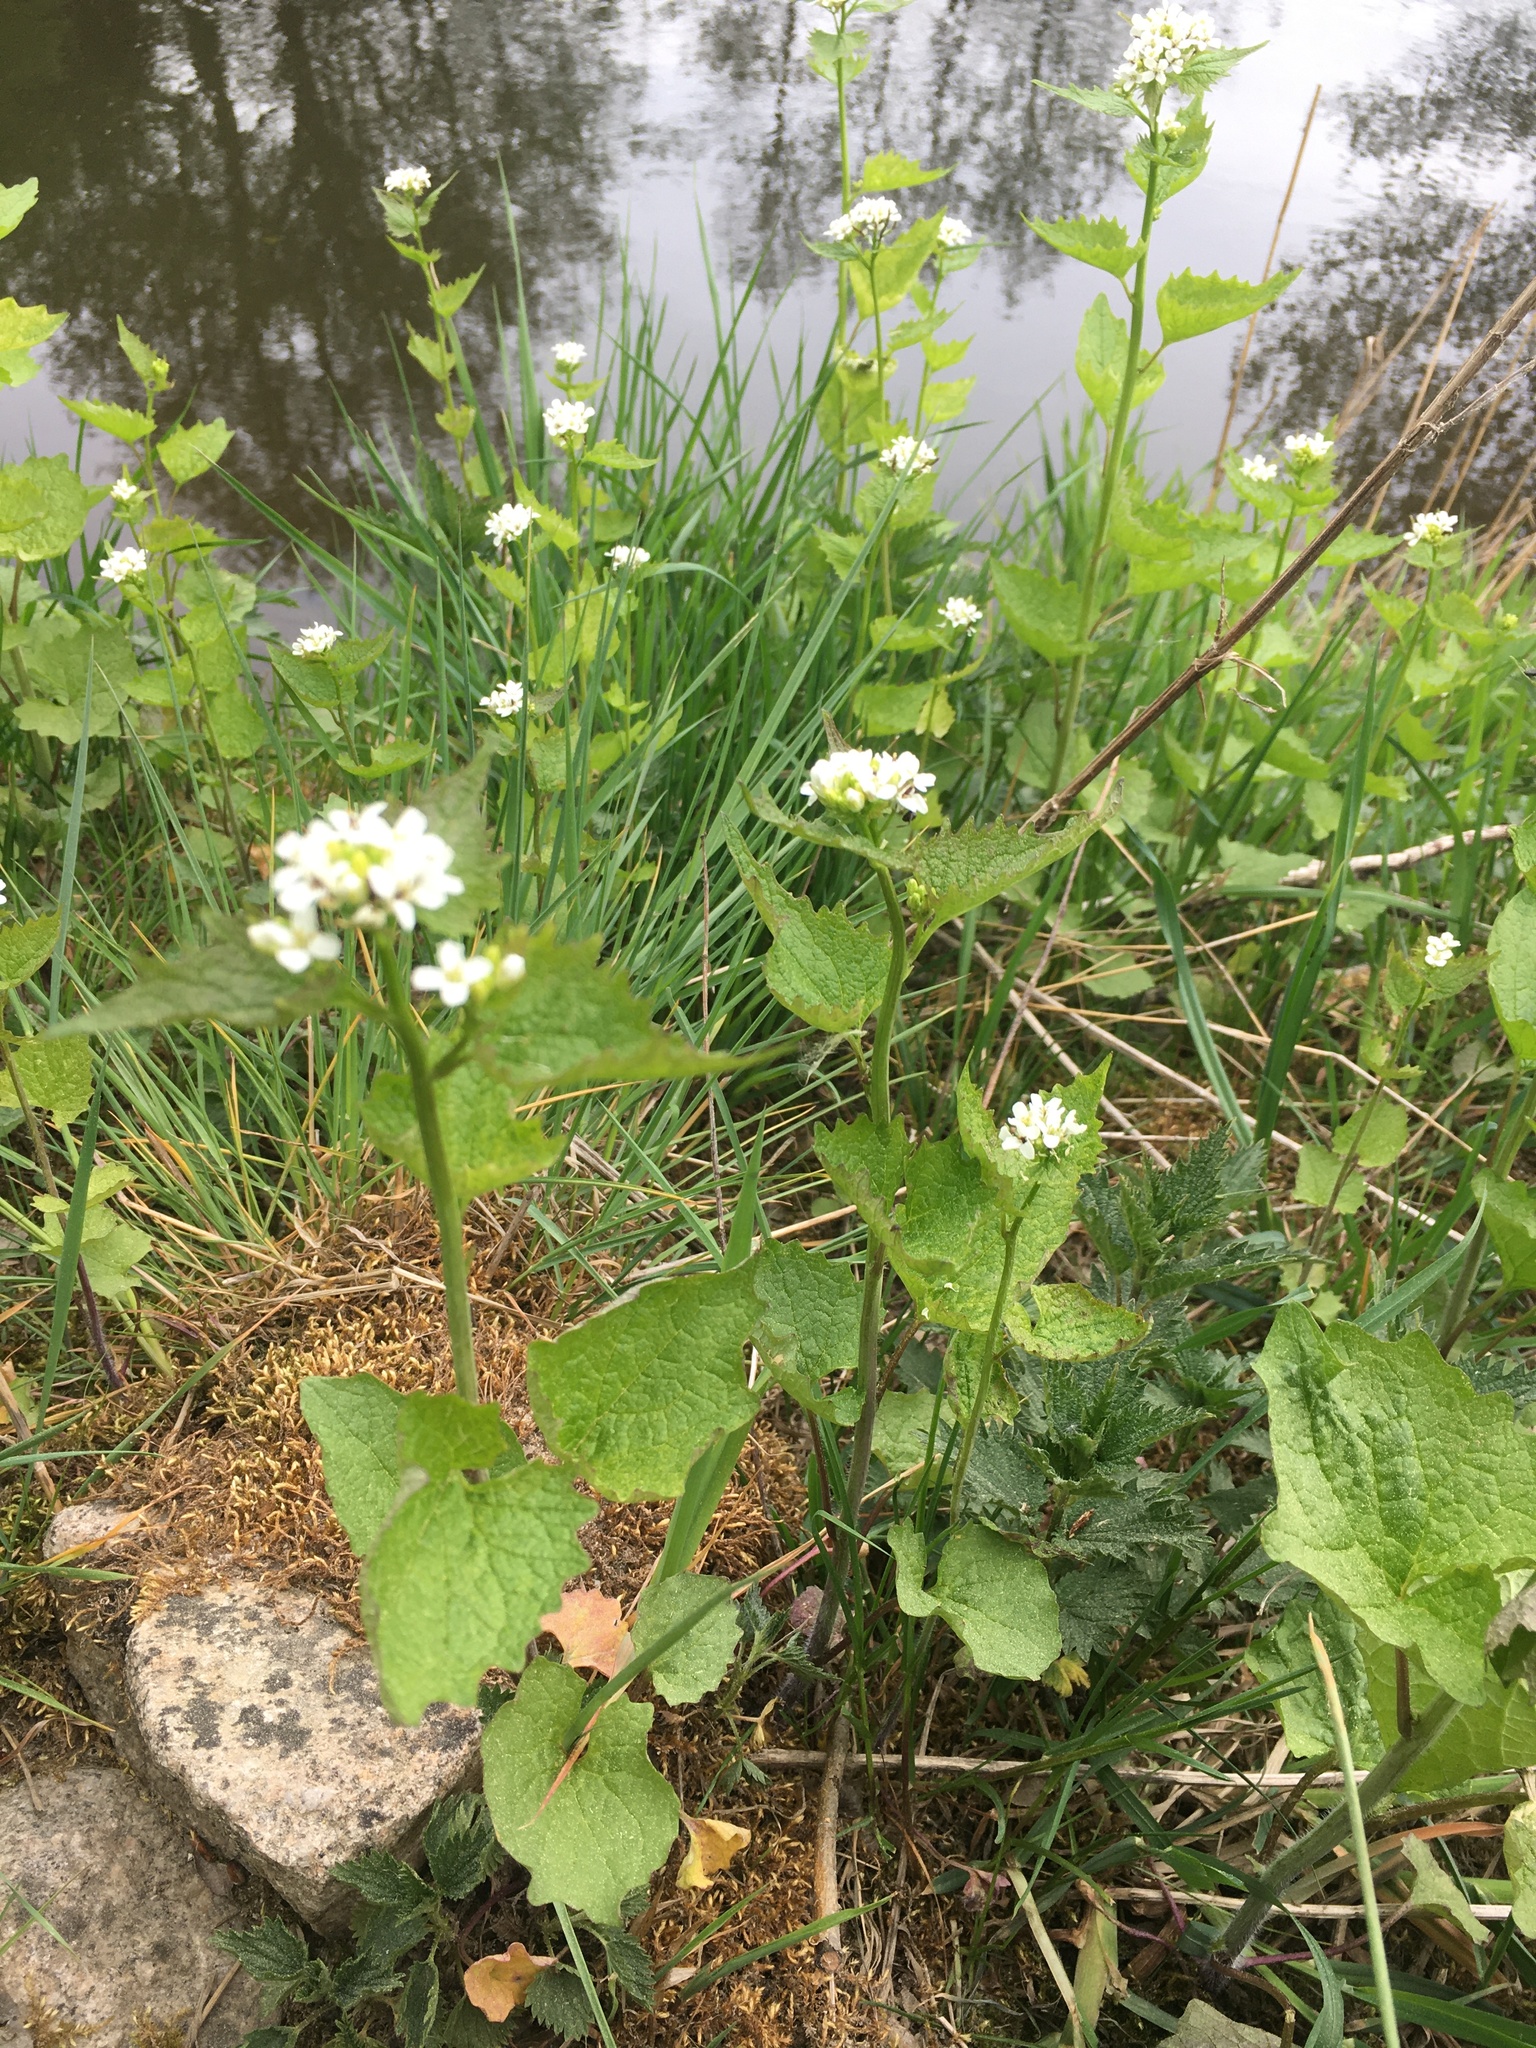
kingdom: Plantae
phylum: Tracheophyta
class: Magnoliopsida
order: Brassicales
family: Brassicaceae
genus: Alliaria
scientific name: Alliaria petiolata
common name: Garlic mustard
